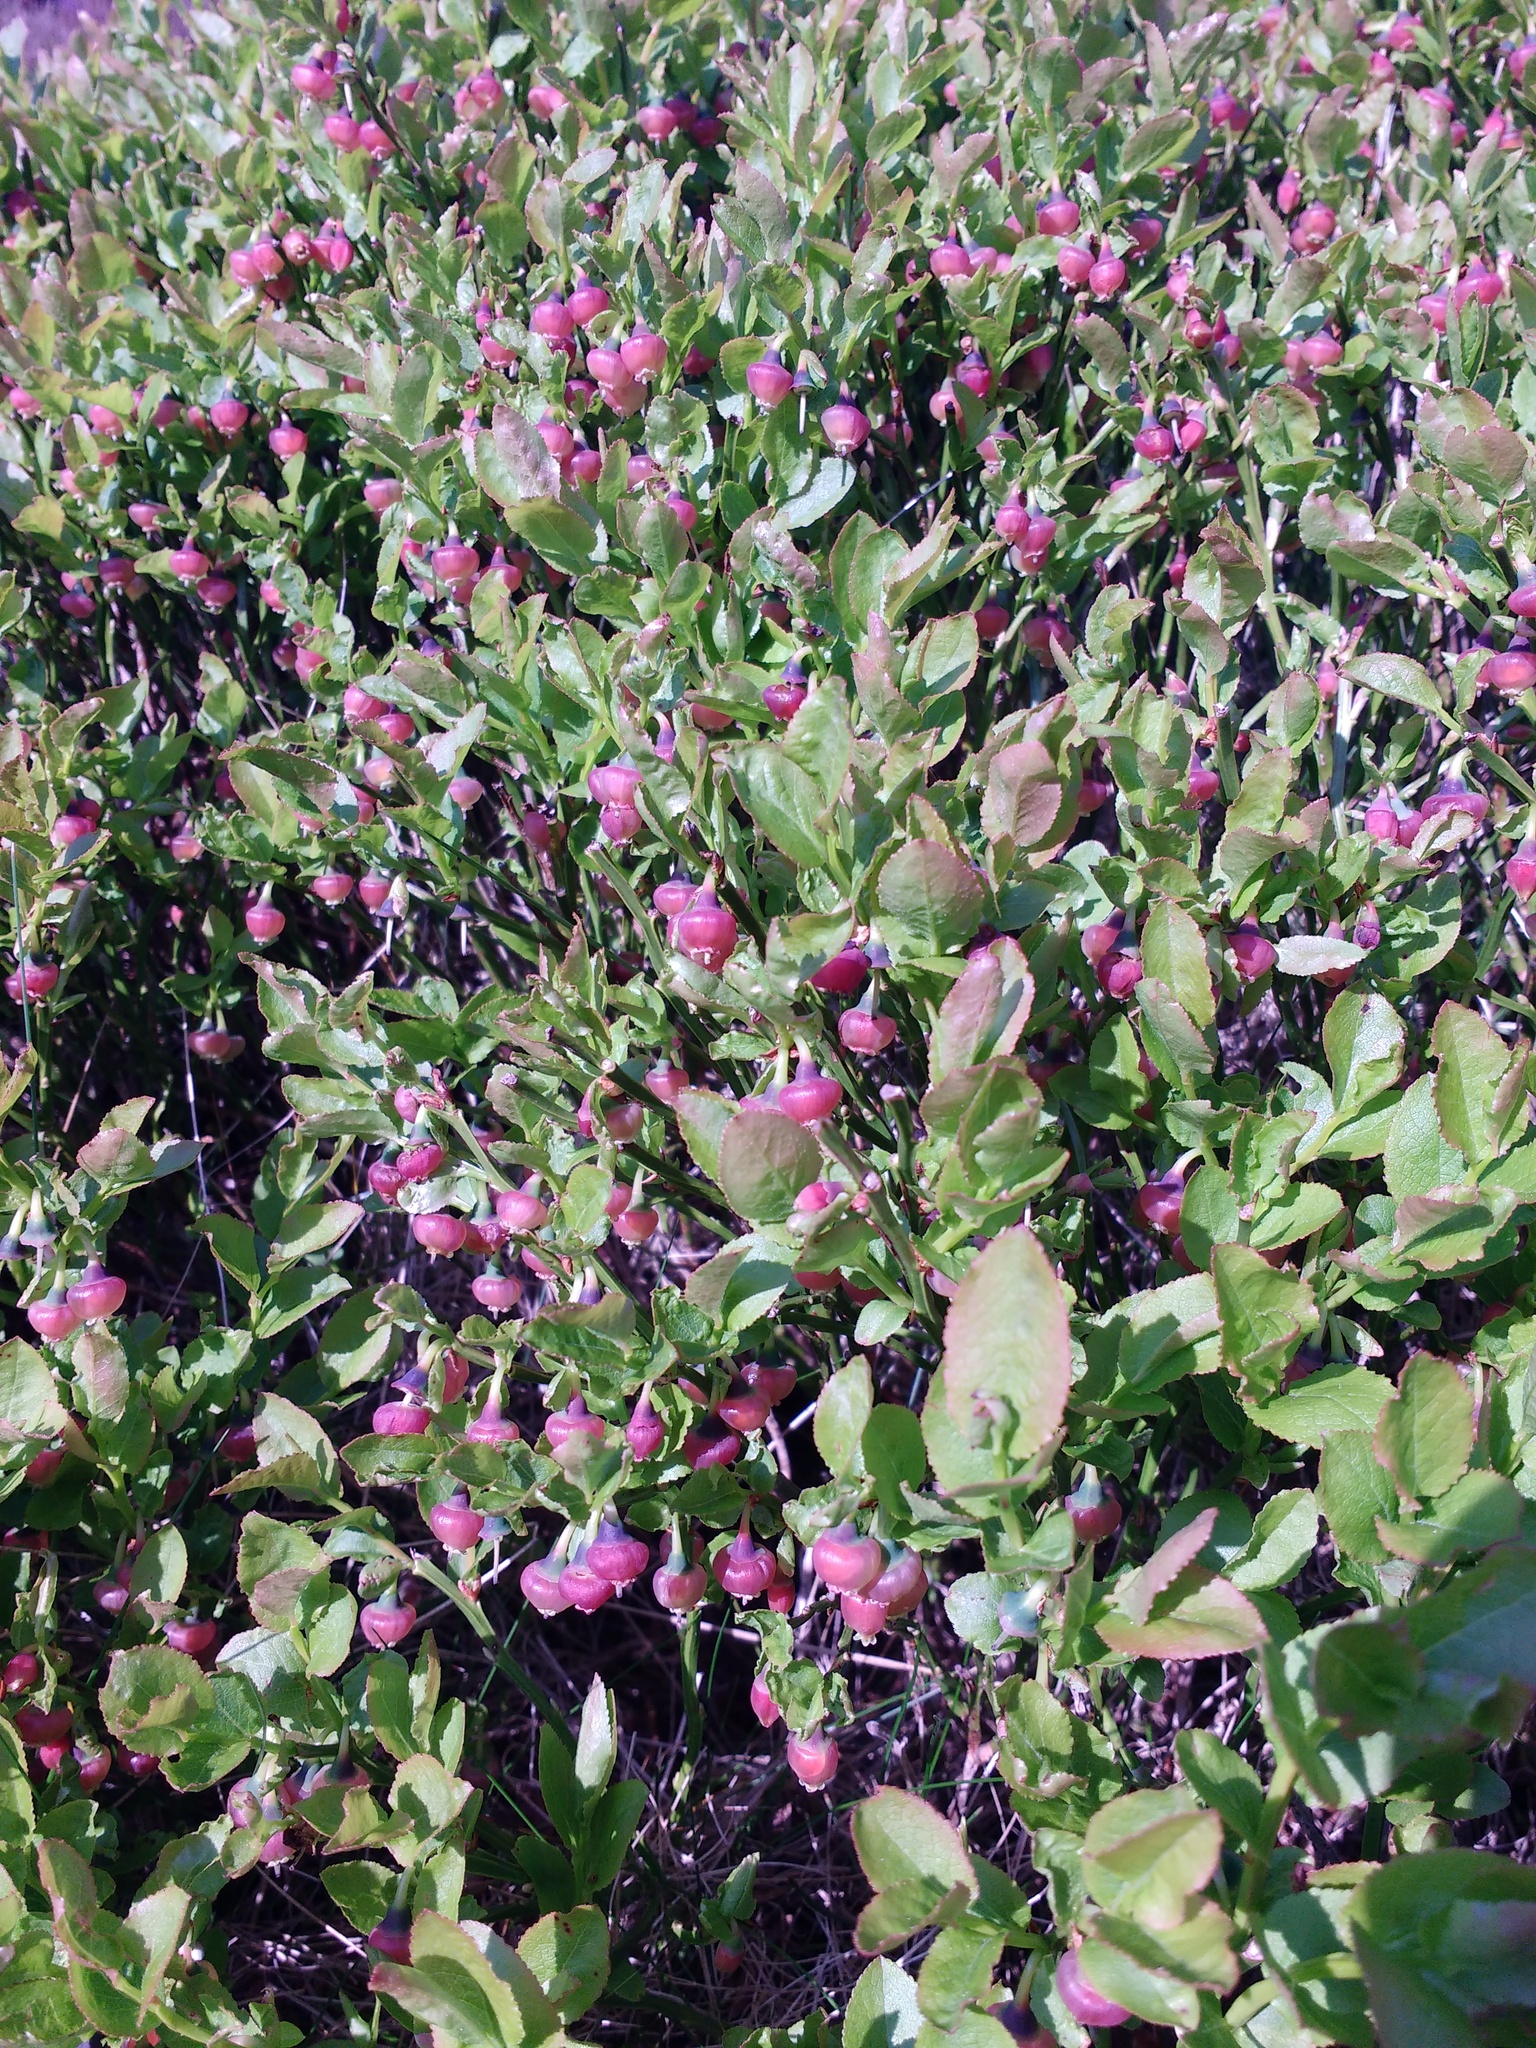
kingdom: Plantae
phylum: Tracheophyta
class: Magnoliopsida
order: Ericales
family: Ericaceae
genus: Vaccinium
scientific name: Vaccinium myrtillus
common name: Bilberry
